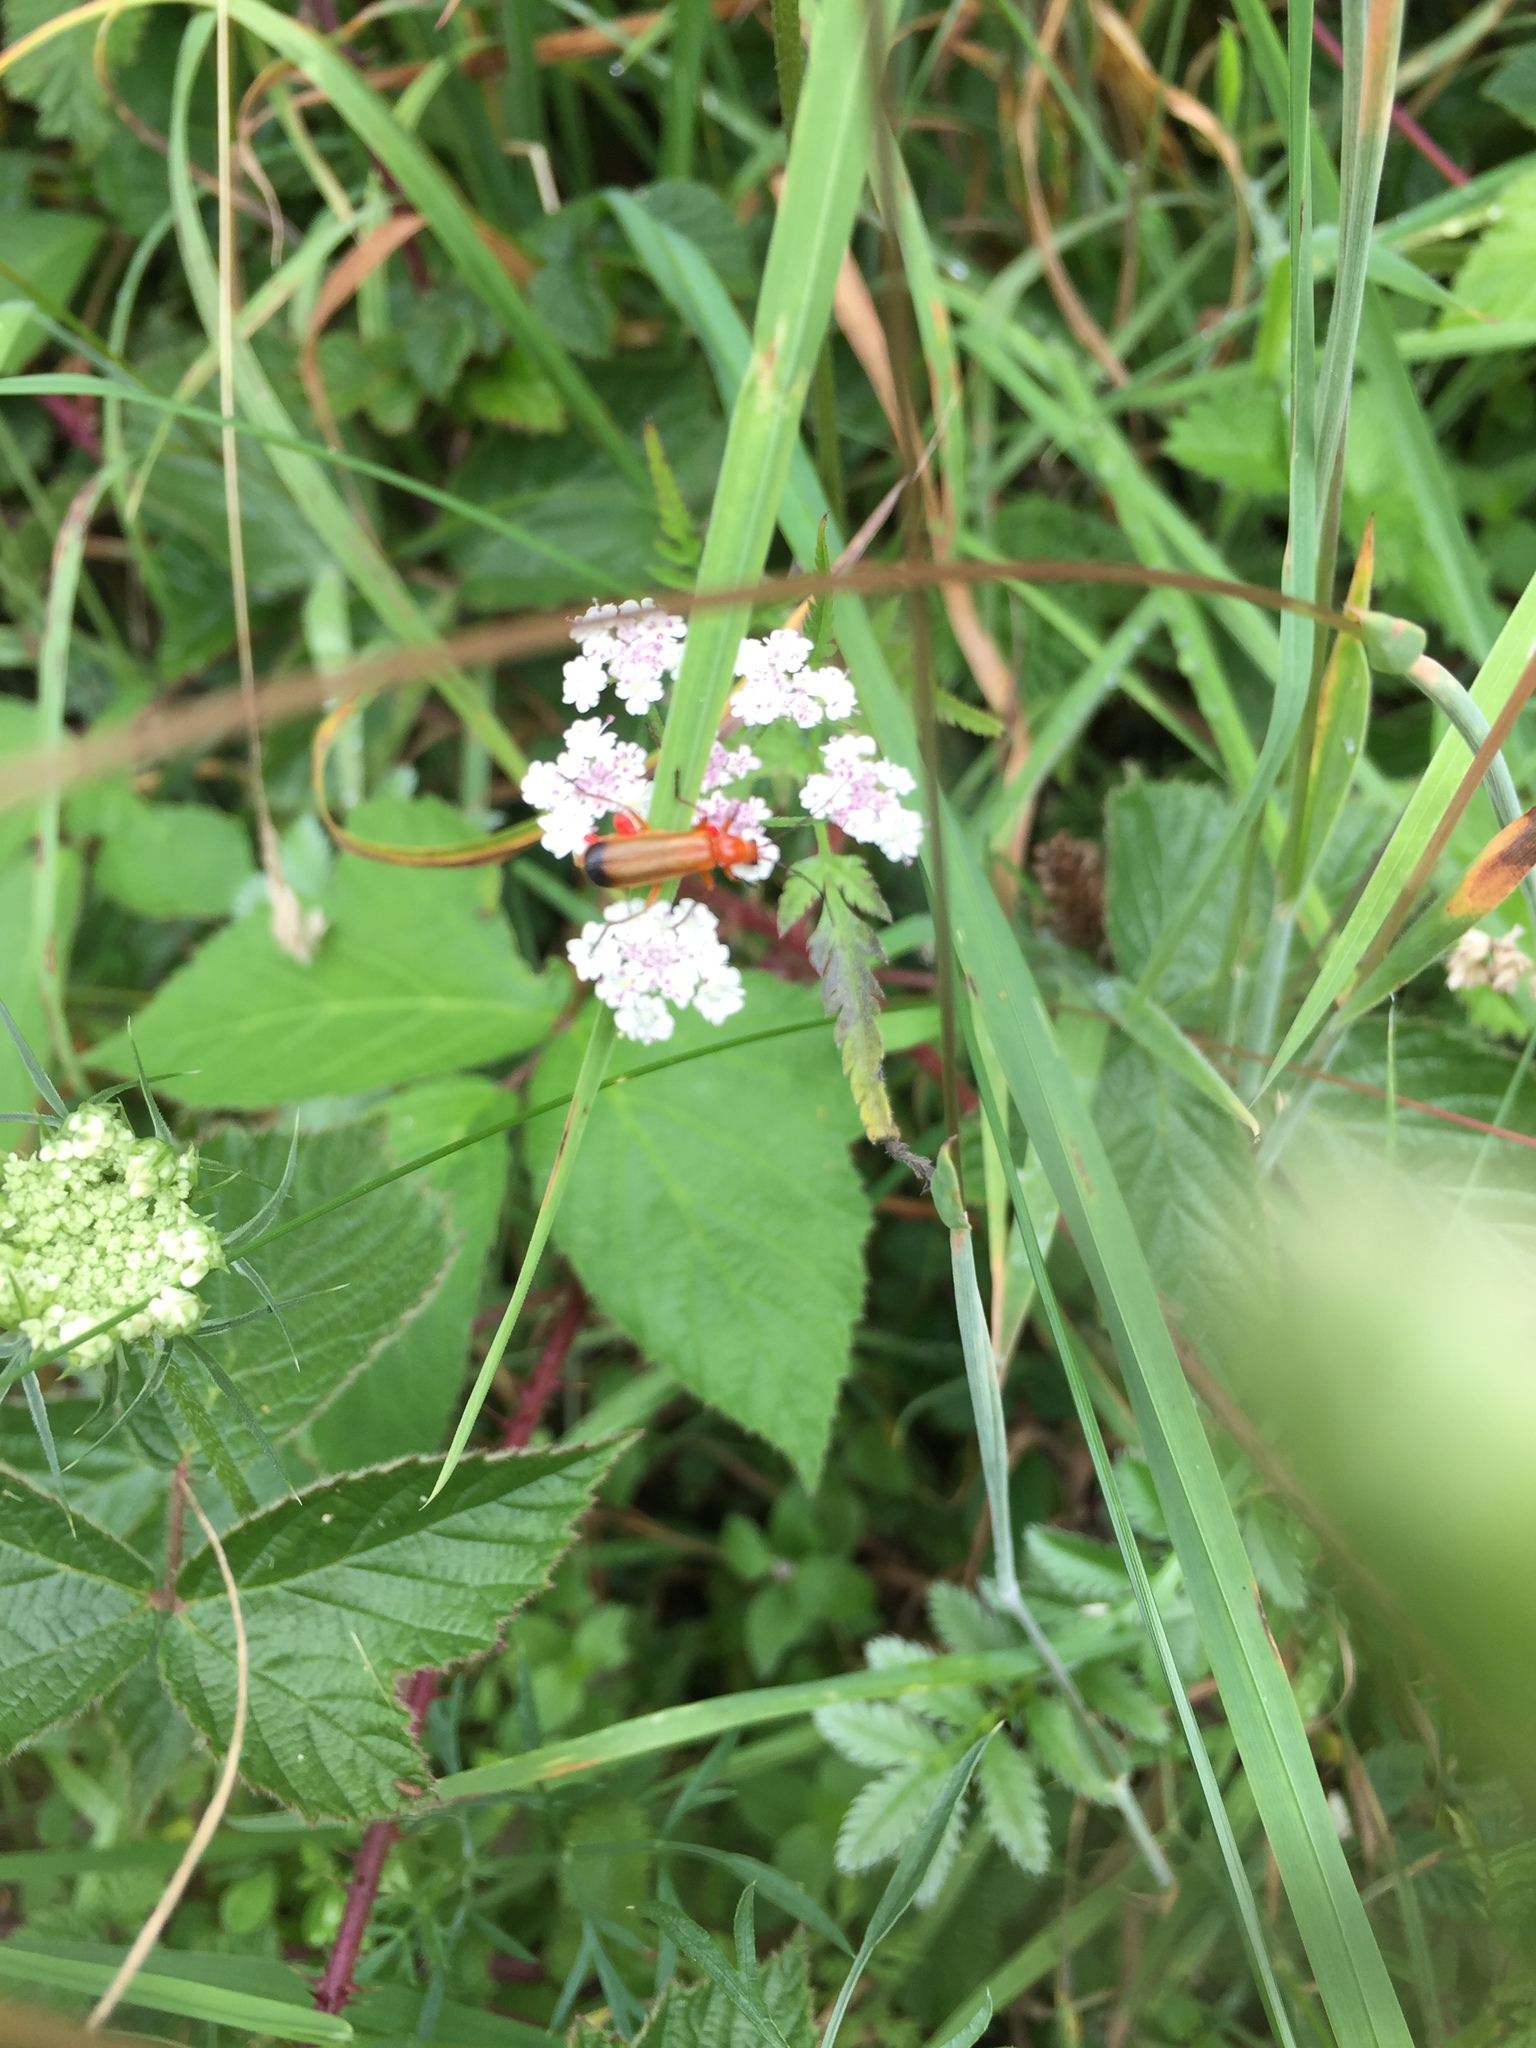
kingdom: Animalia
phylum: Arthropoda
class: Insecta
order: Coleoptera
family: Cantharidae
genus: Rhagonycha
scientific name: Rhagonycha fulva
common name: Common red soldier beetle
